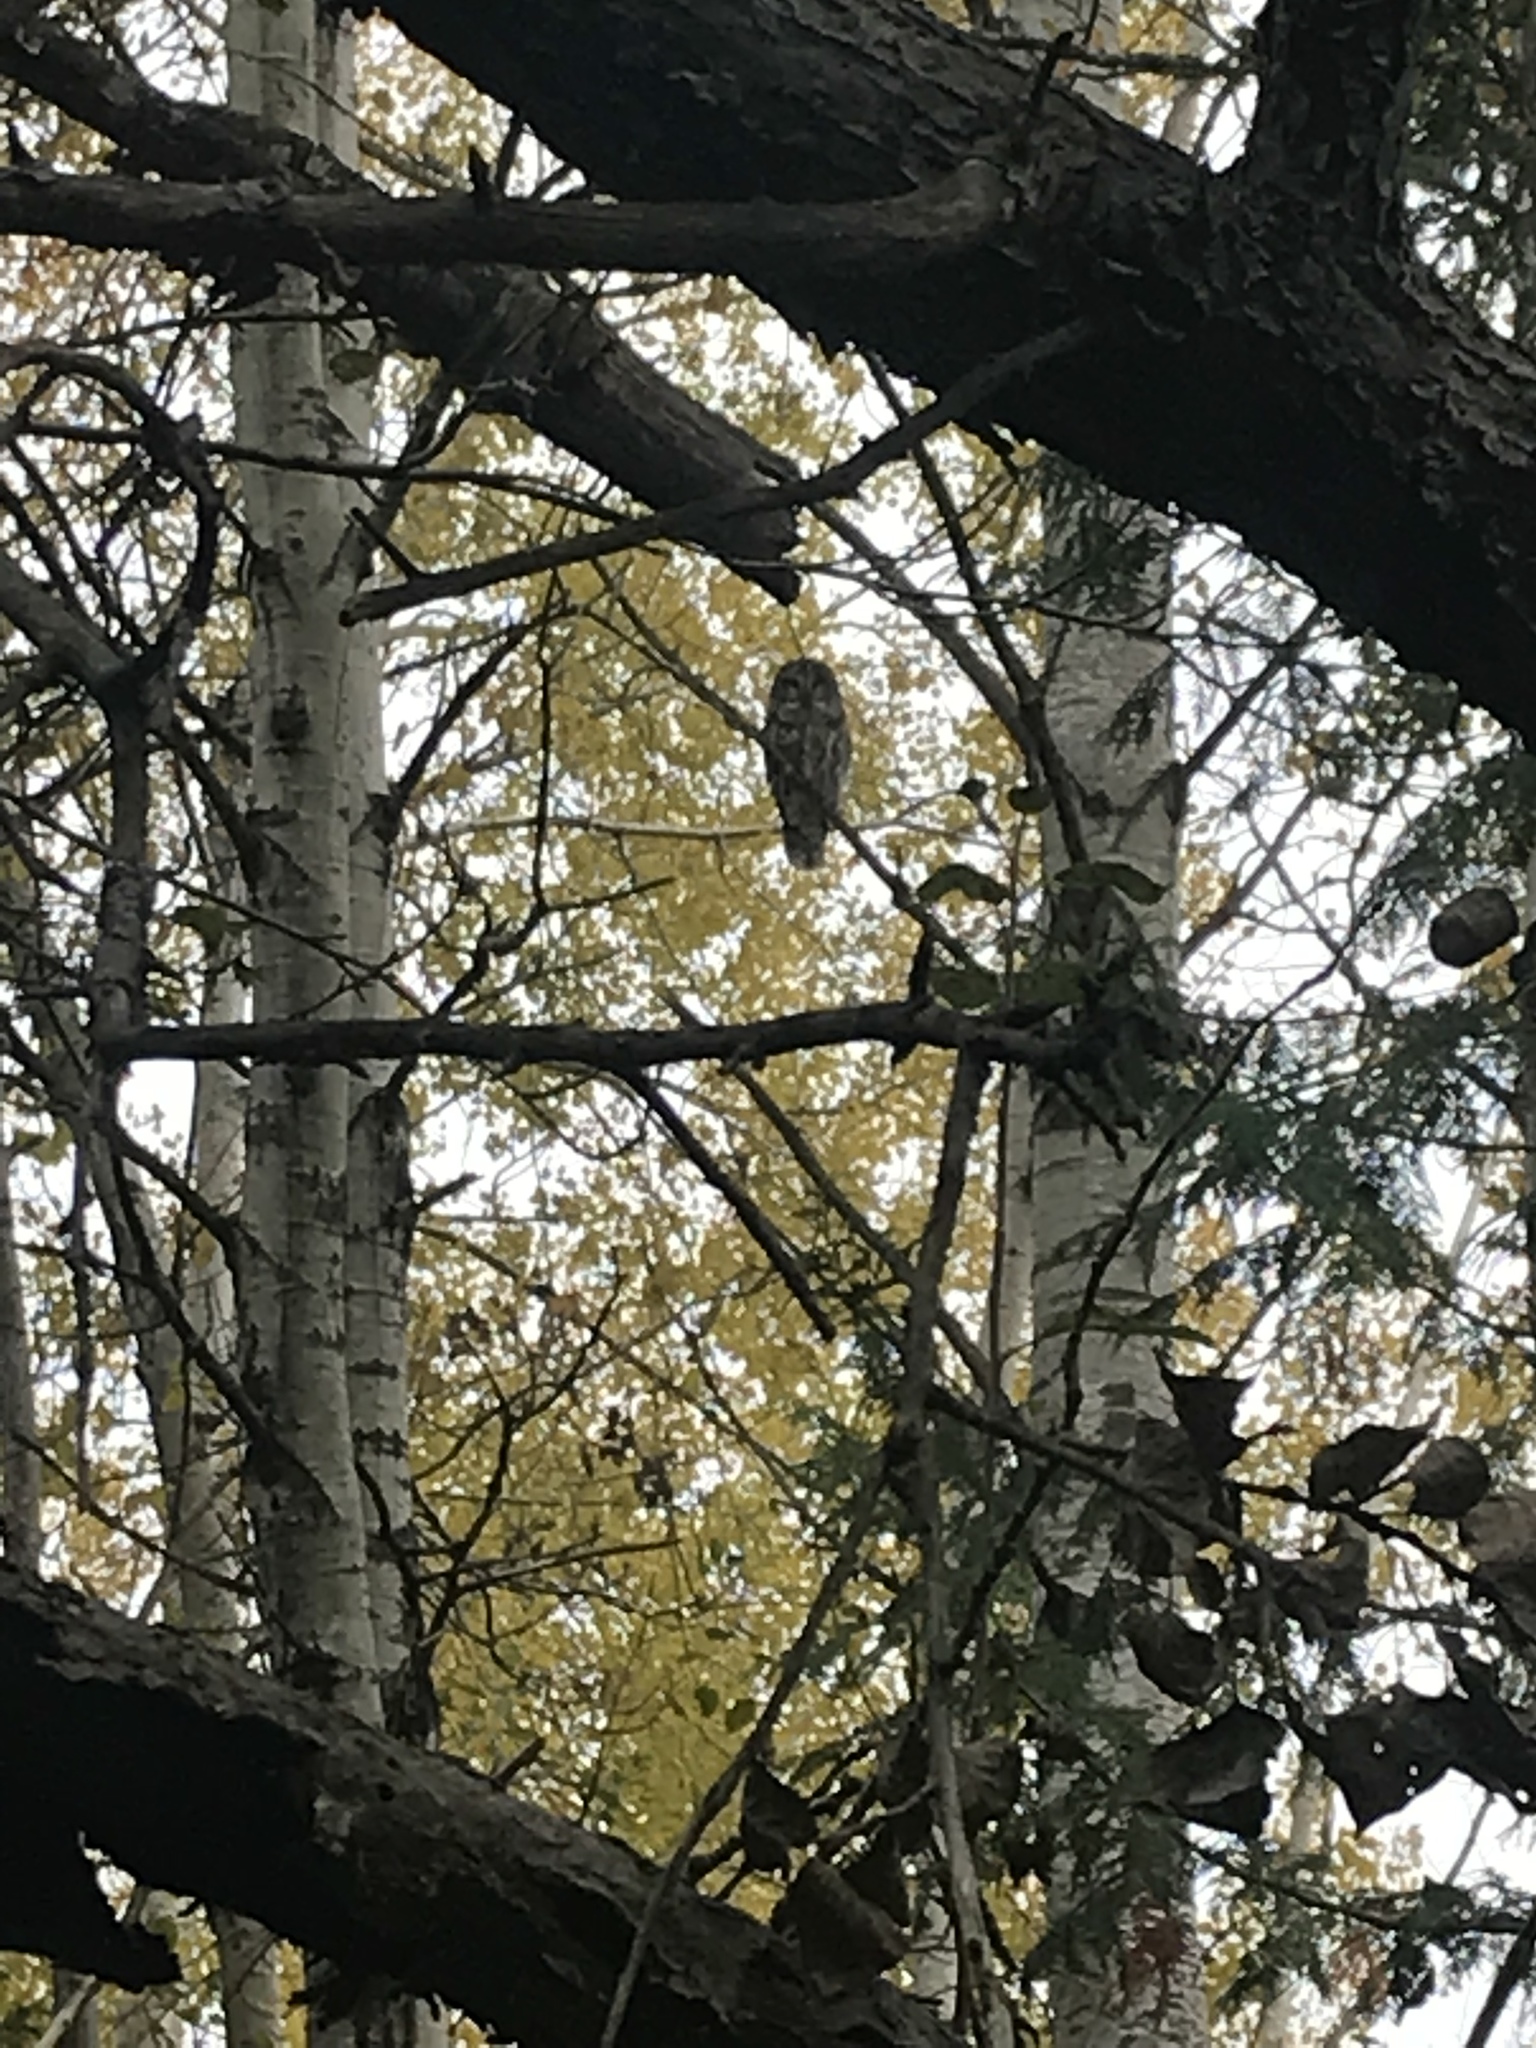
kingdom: Animalia
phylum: Chordata
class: Aves
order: Strigiformes
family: Strigidae
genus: Strix
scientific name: Strix varia
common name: Barred owl
